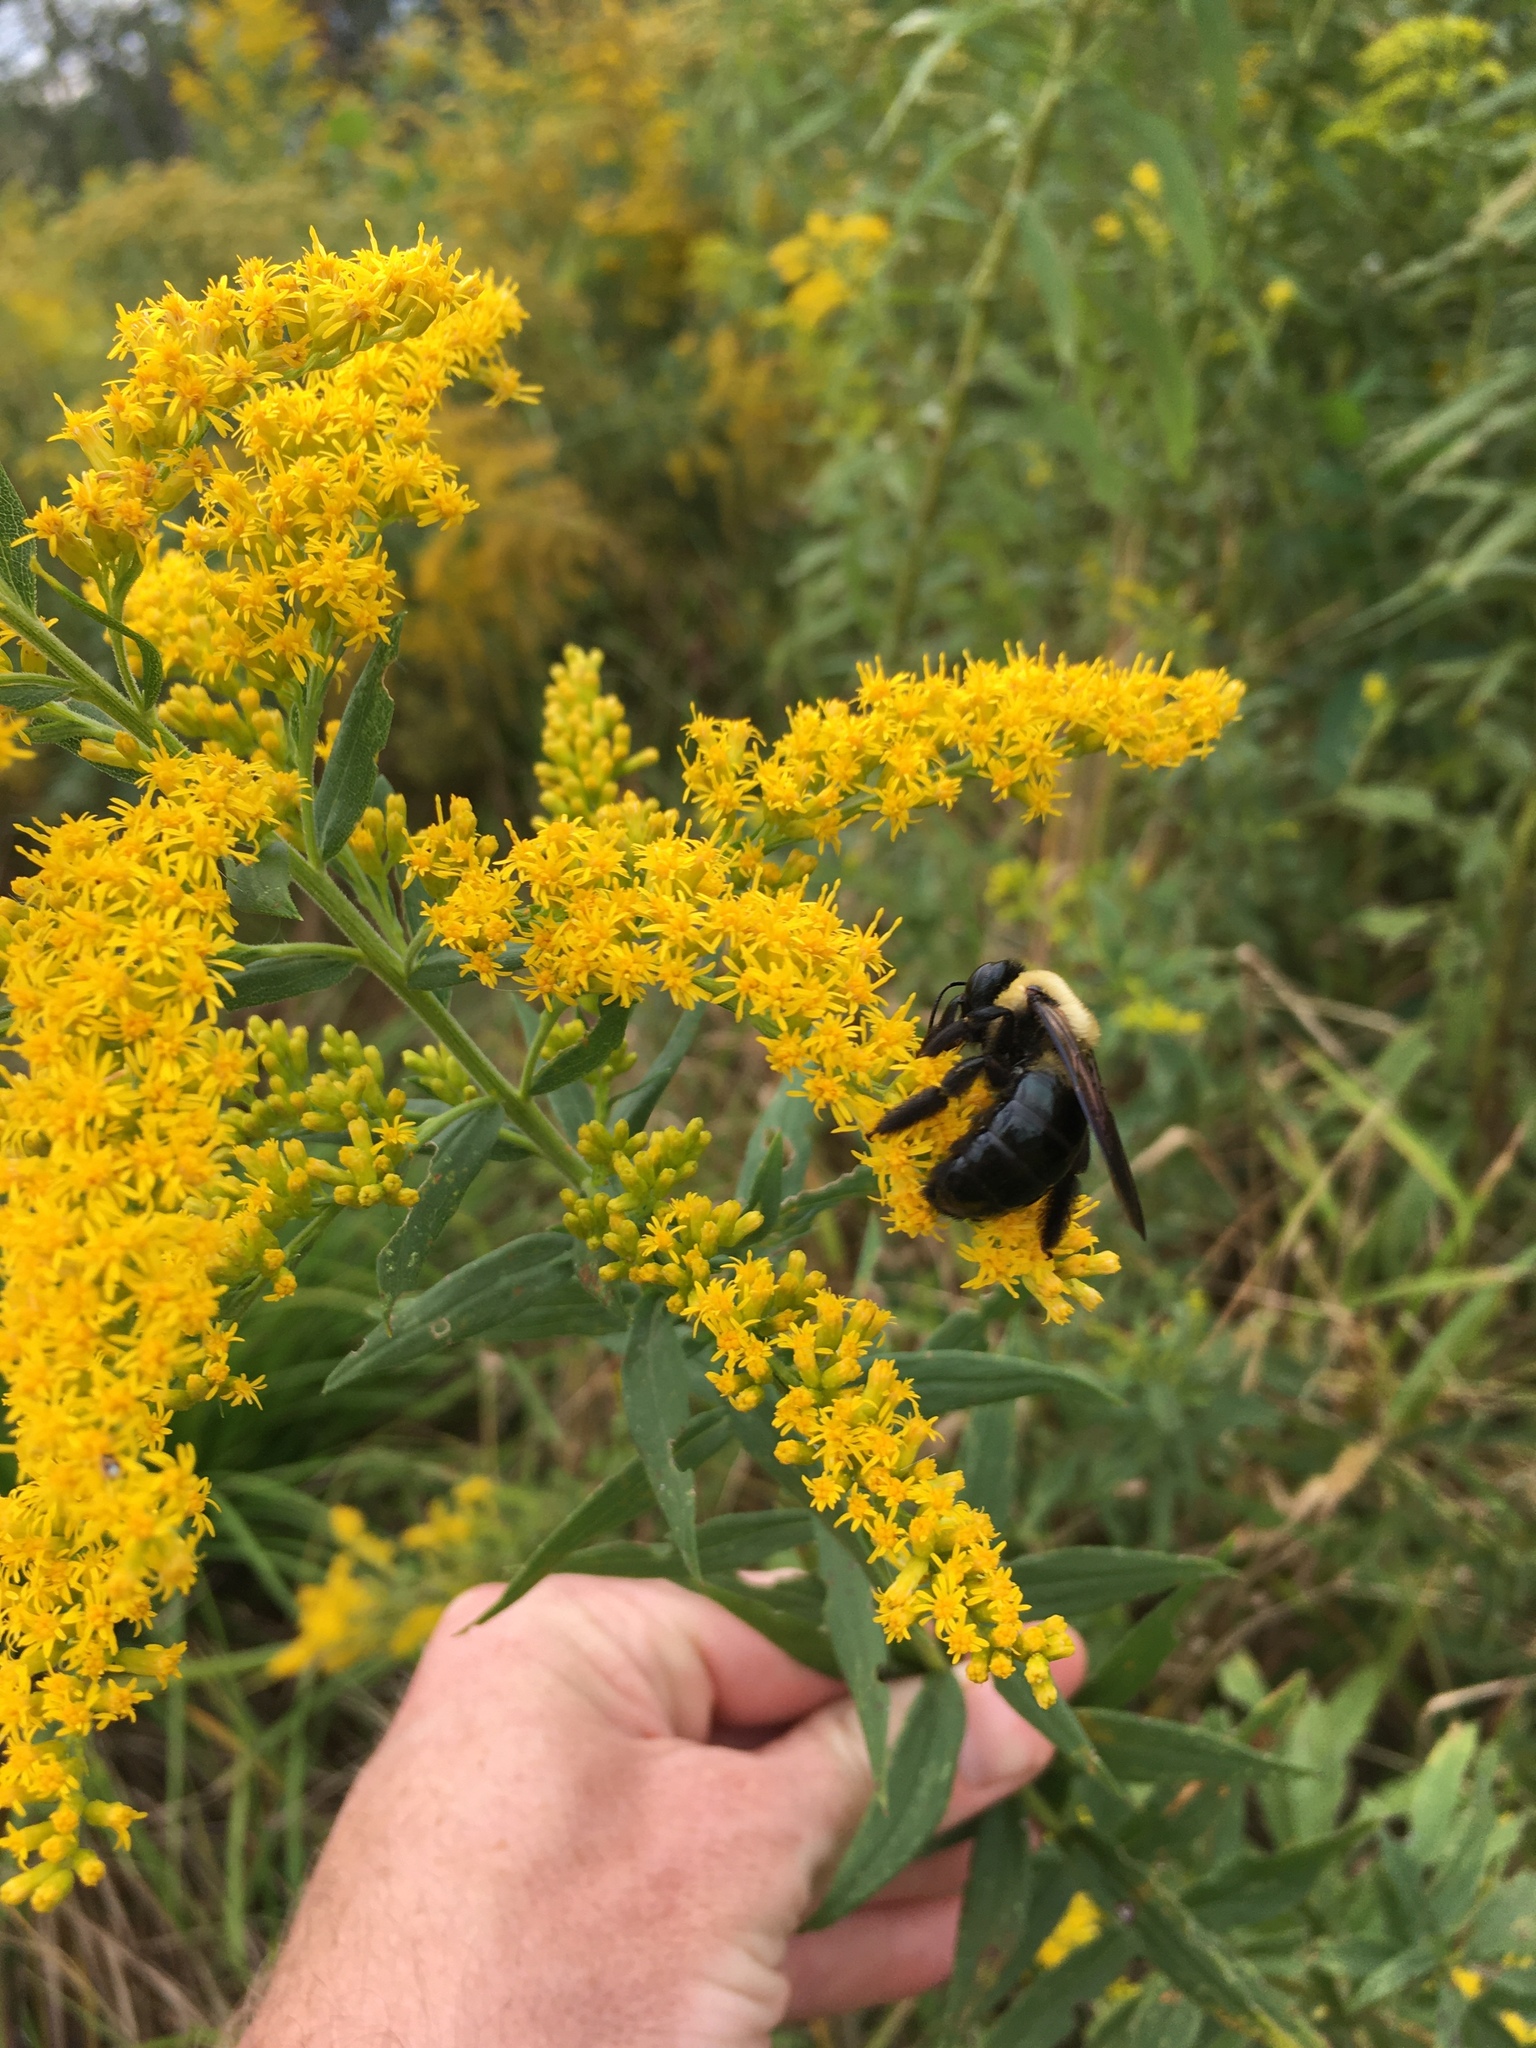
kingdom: Animalia
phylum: Arthropoda
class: Insecta
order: Hymenoptera
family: Apidae
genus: Xylocopa
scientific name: Xylocopa virginica
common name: Carpenter bee
